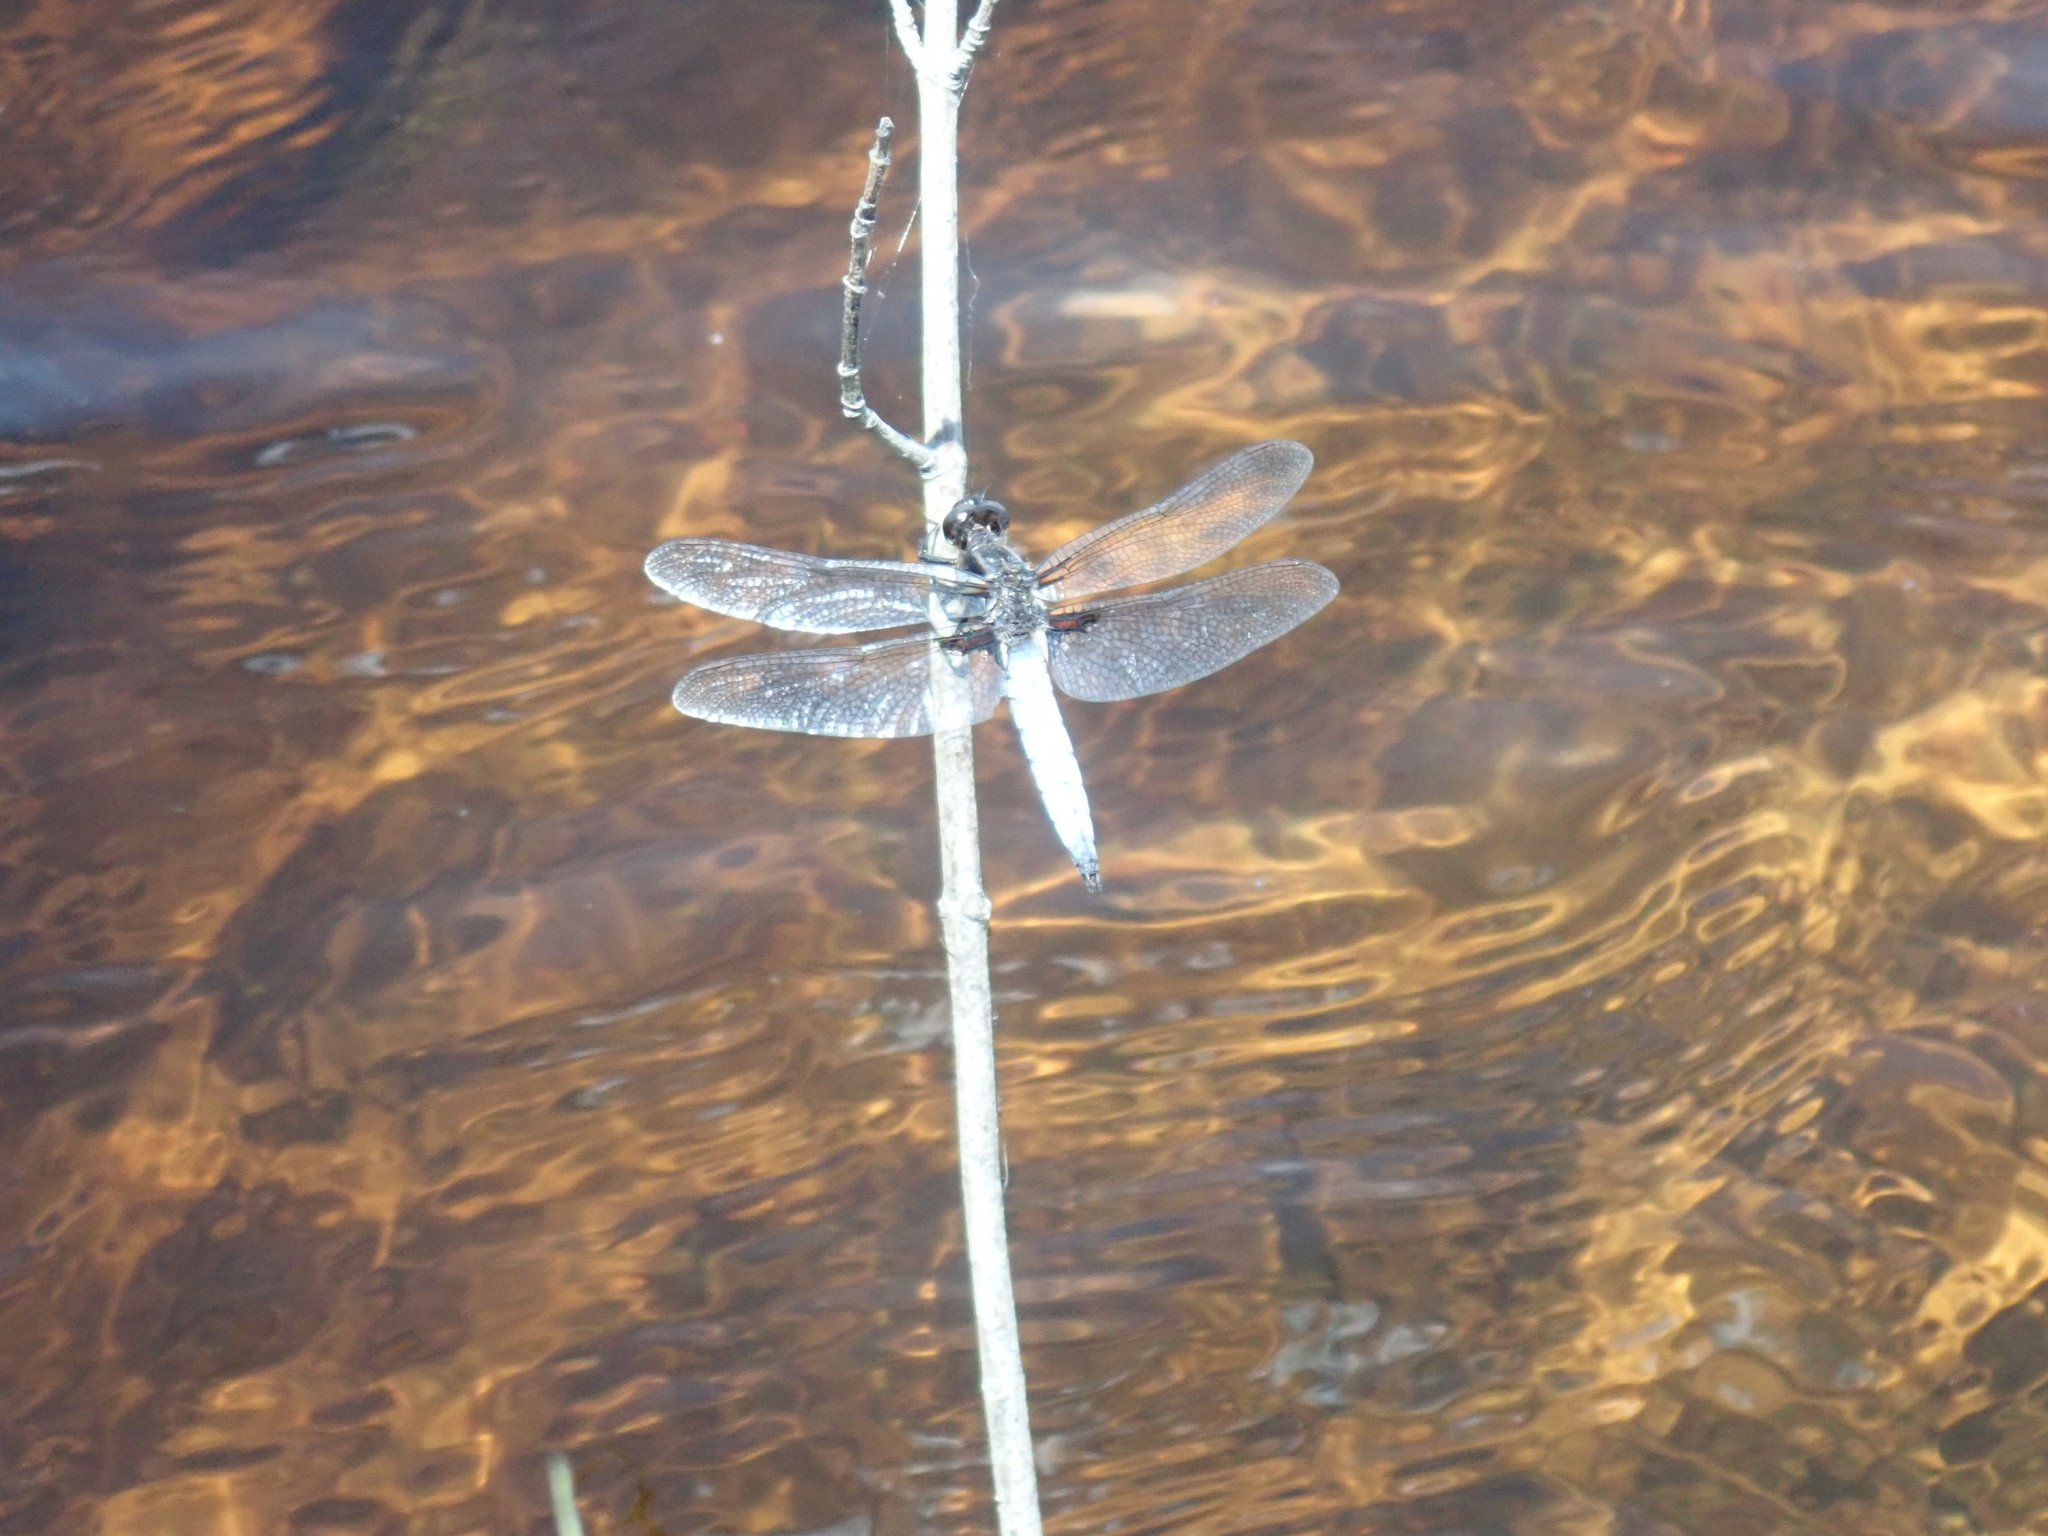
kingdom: Animalia
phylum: Arthropoda
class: Insecta
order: Odonata
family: Libellulidae
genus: Ladona
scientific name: Ladona exusta
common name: Libellule embrasée
